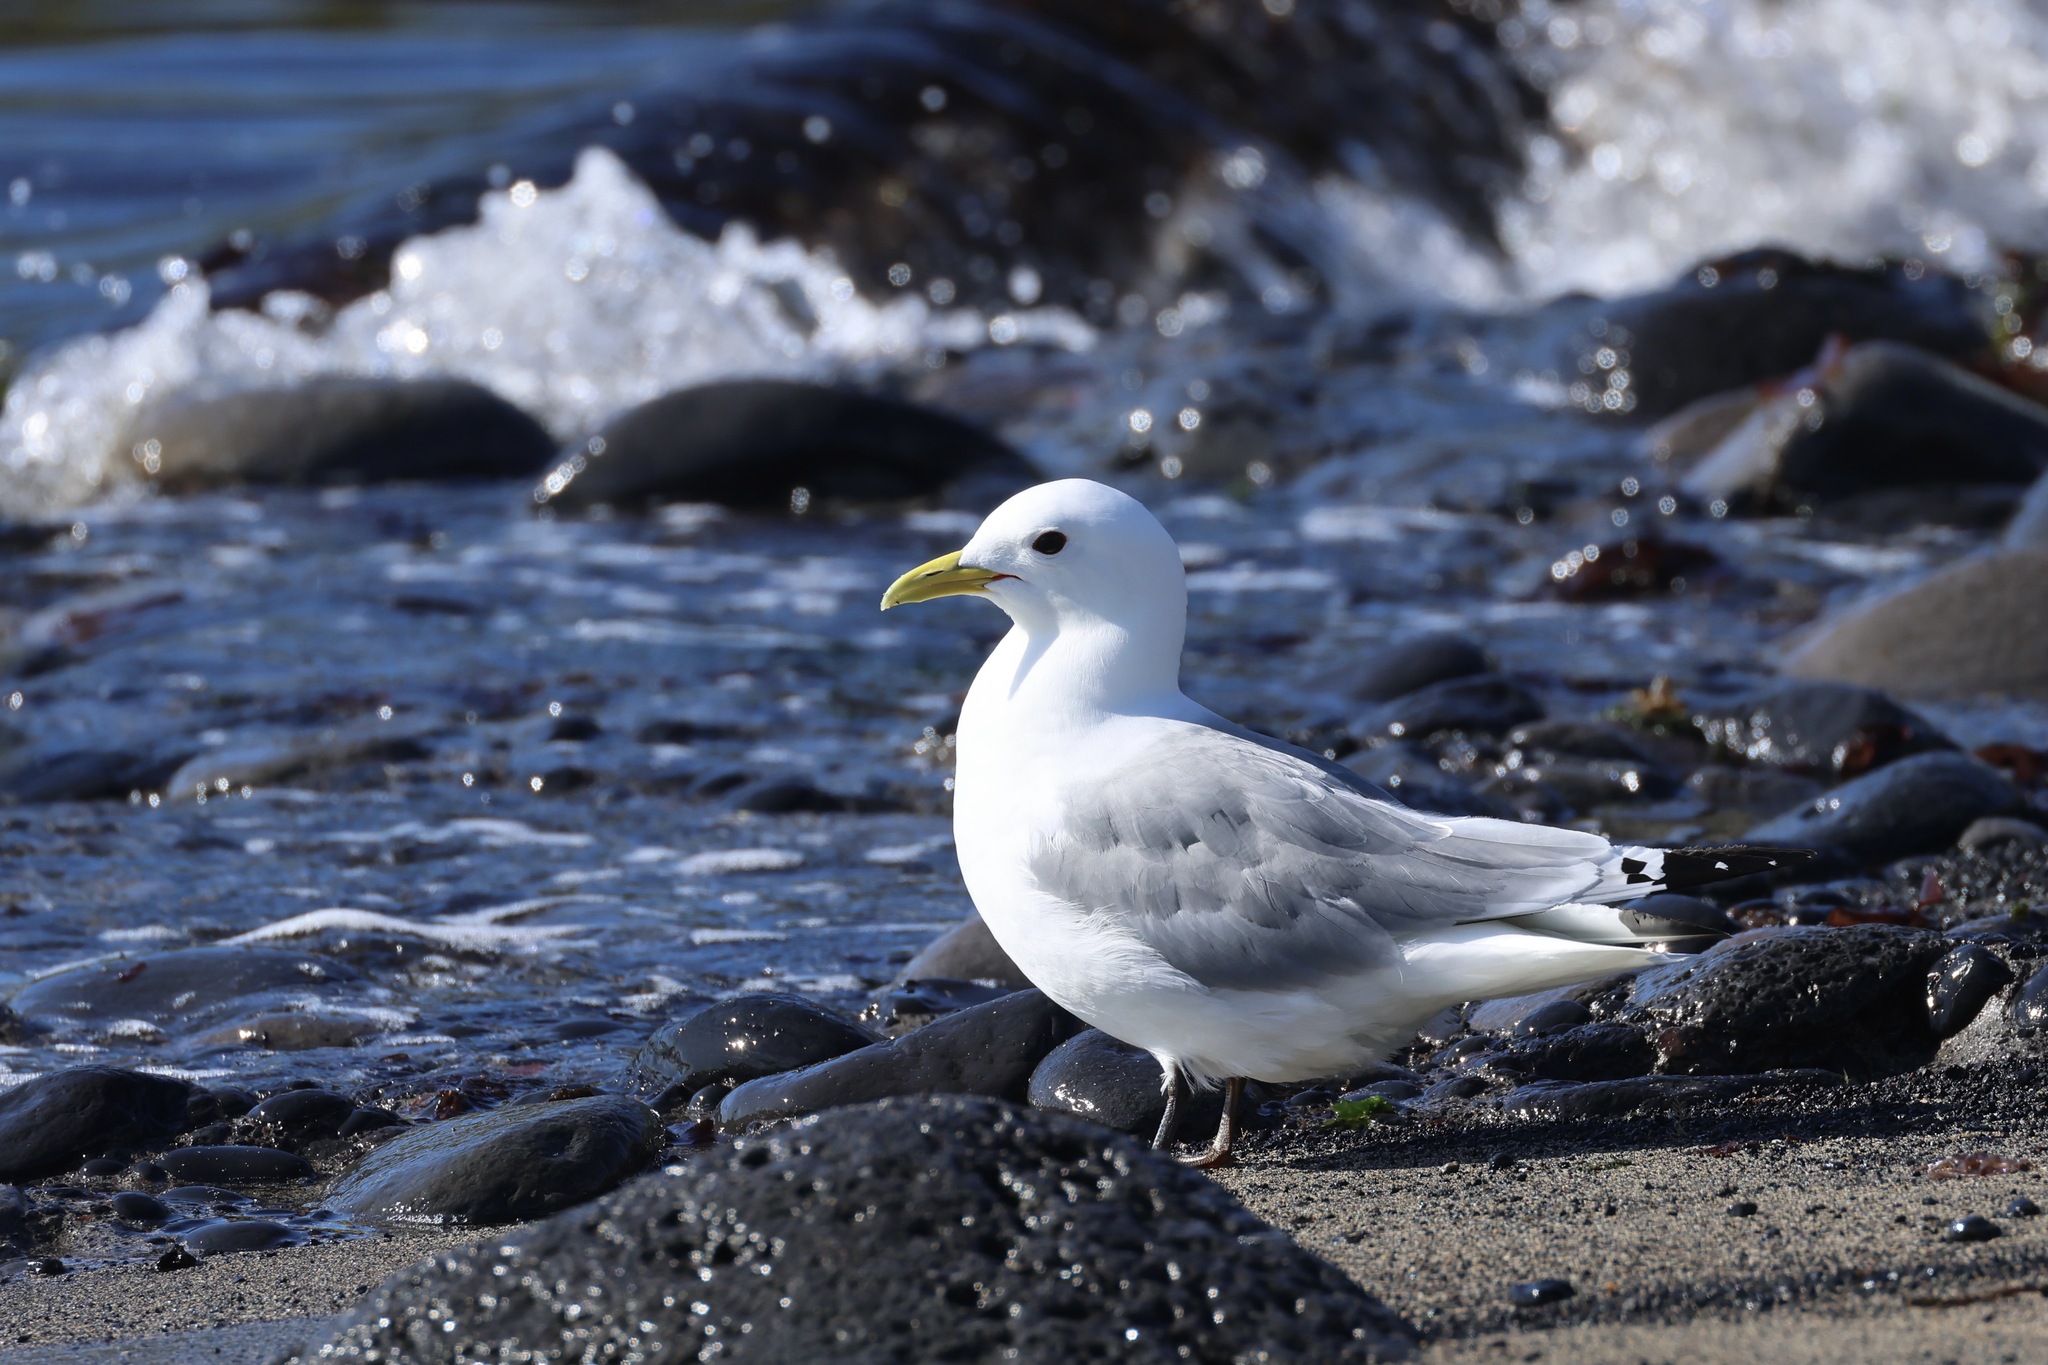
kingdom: Animalia
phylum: Chordata
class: Aves
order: Charadriiformes
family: Laridae
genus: Rissa
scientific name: Rissa tridactyla
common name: Black-legged kittiwake
